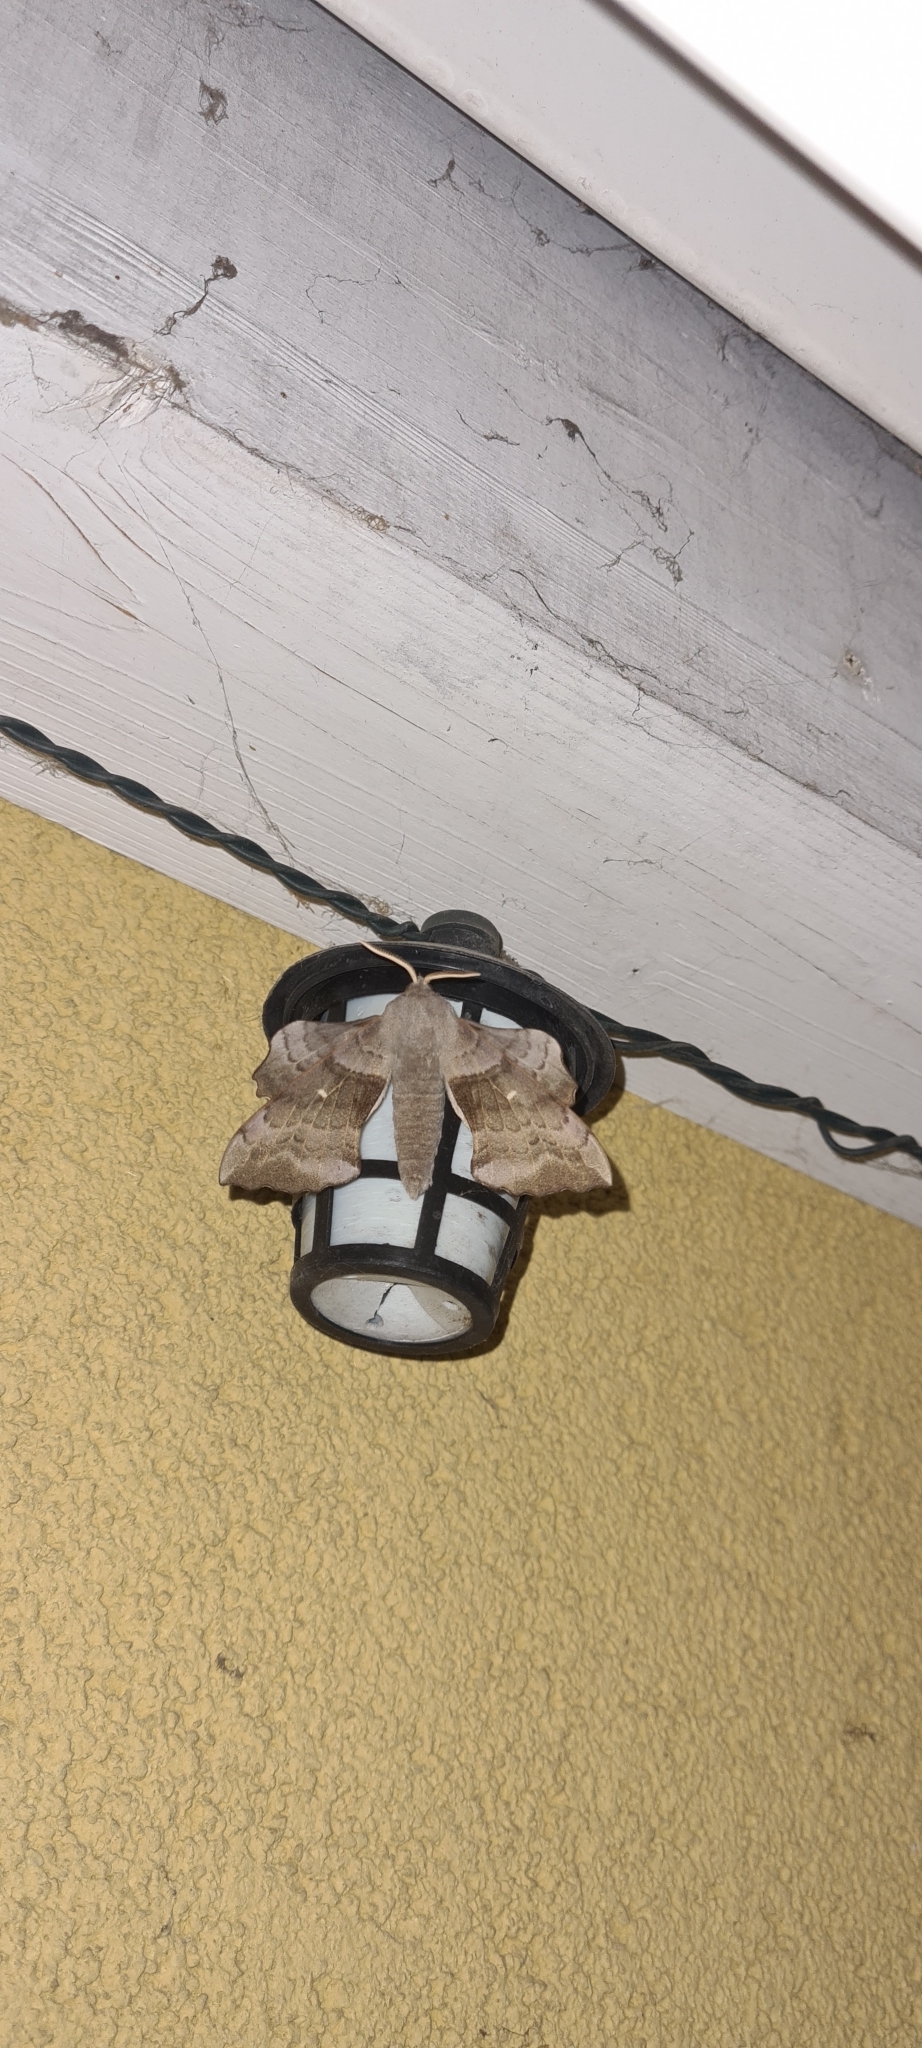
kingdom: Animalia
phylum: Arthropoda
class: Insecta
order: Lepidoptera
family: Sphingidae
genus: Laothoe
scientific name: Laothoe populi
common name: Poplar hawk-moth
